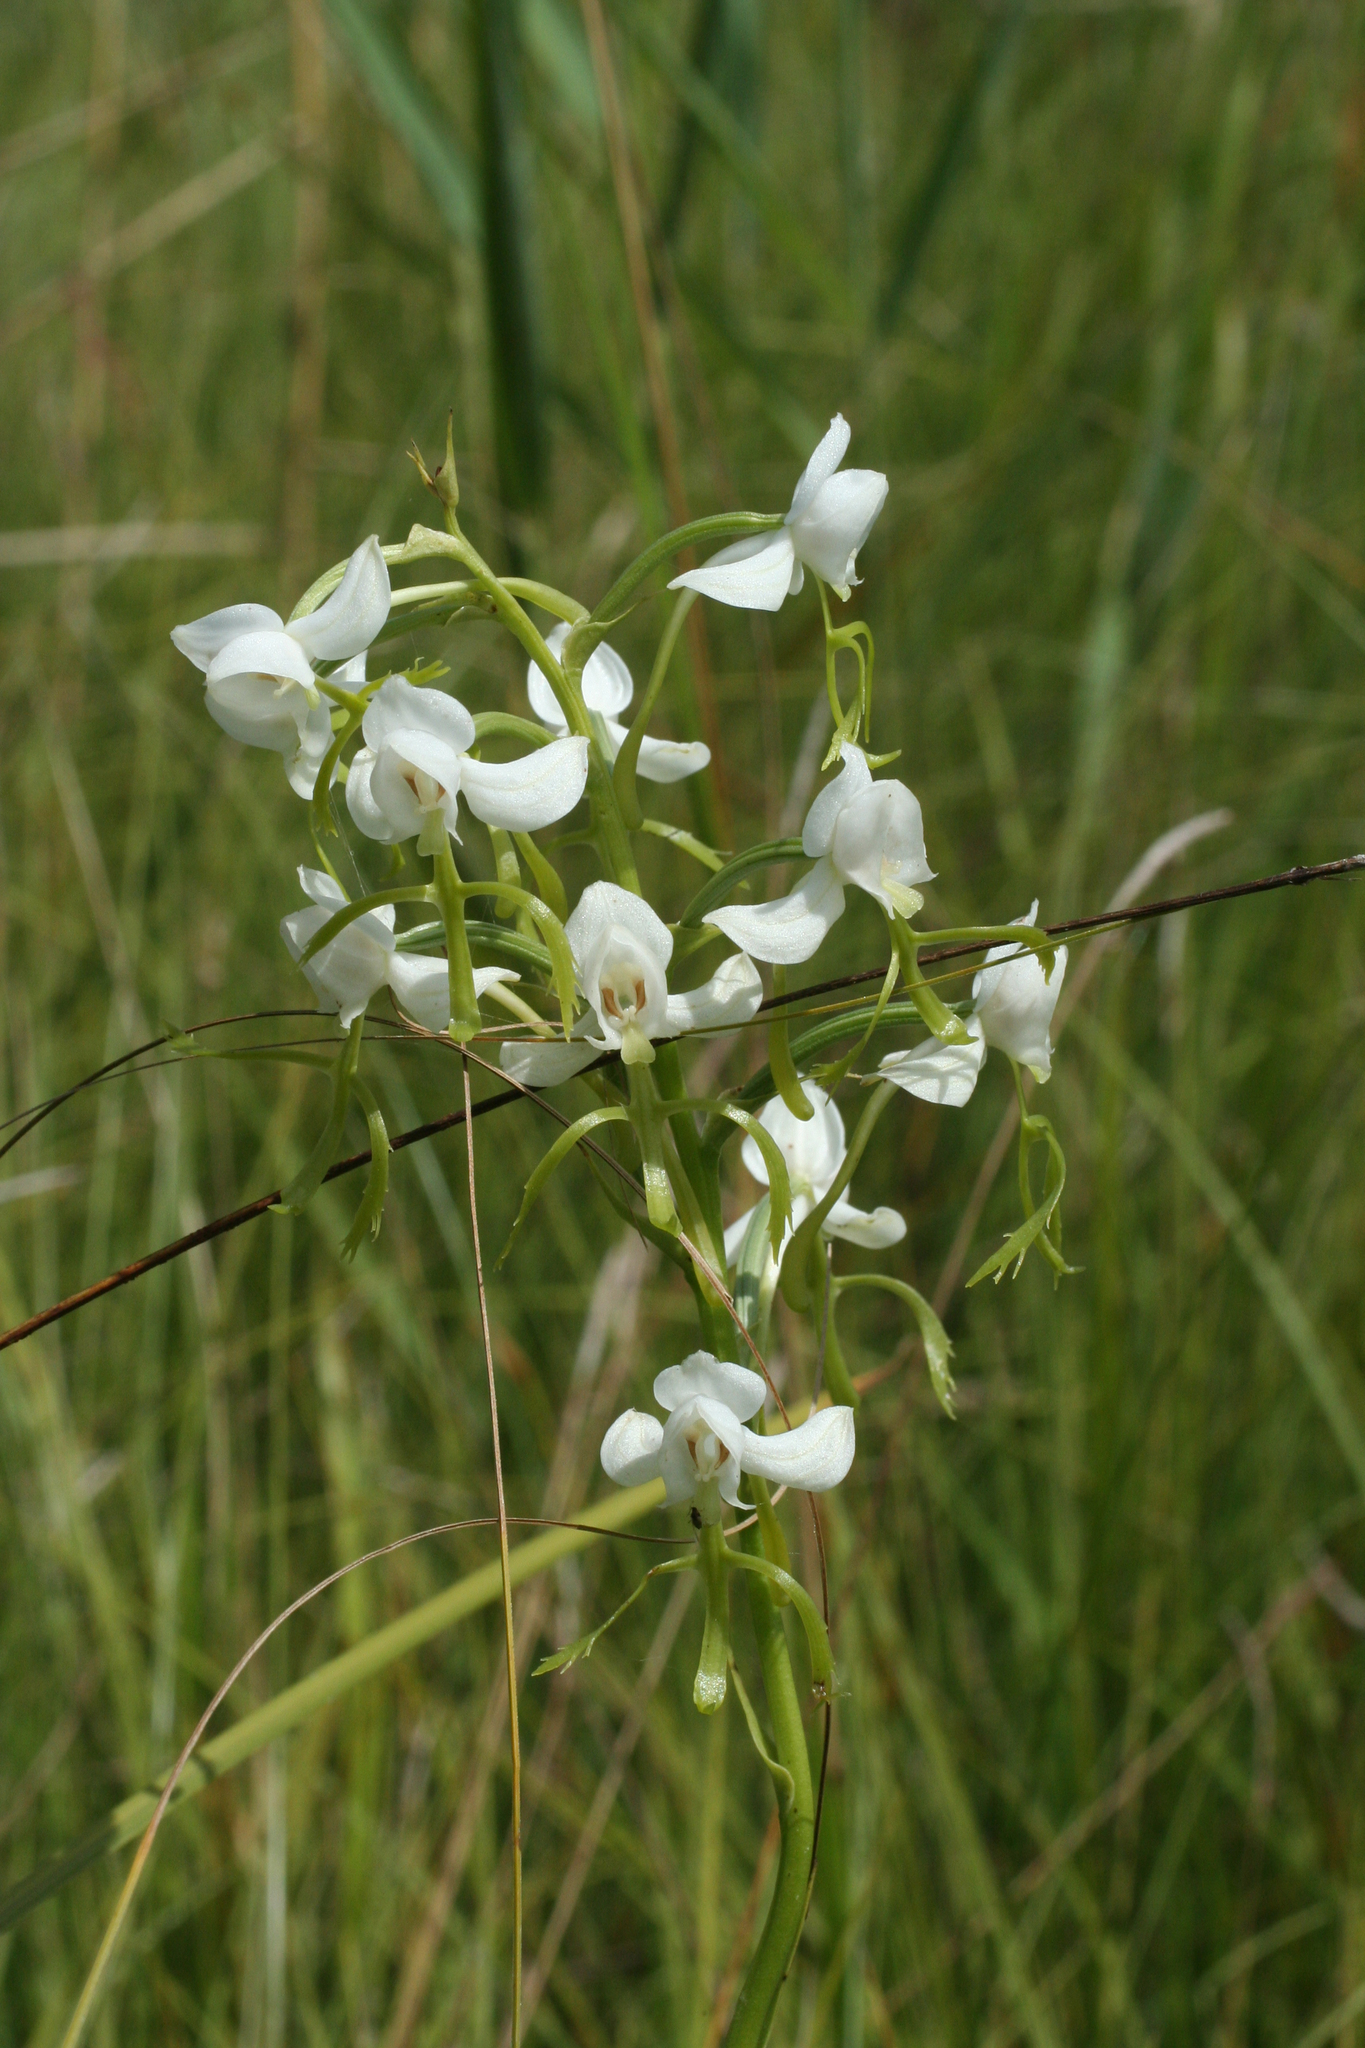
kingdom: Plantae
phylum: Tracheophyta
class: Liliopsida
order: Asparagales
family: Orchidaceae
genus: Habenaria
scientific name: Habenaria linearifolia
